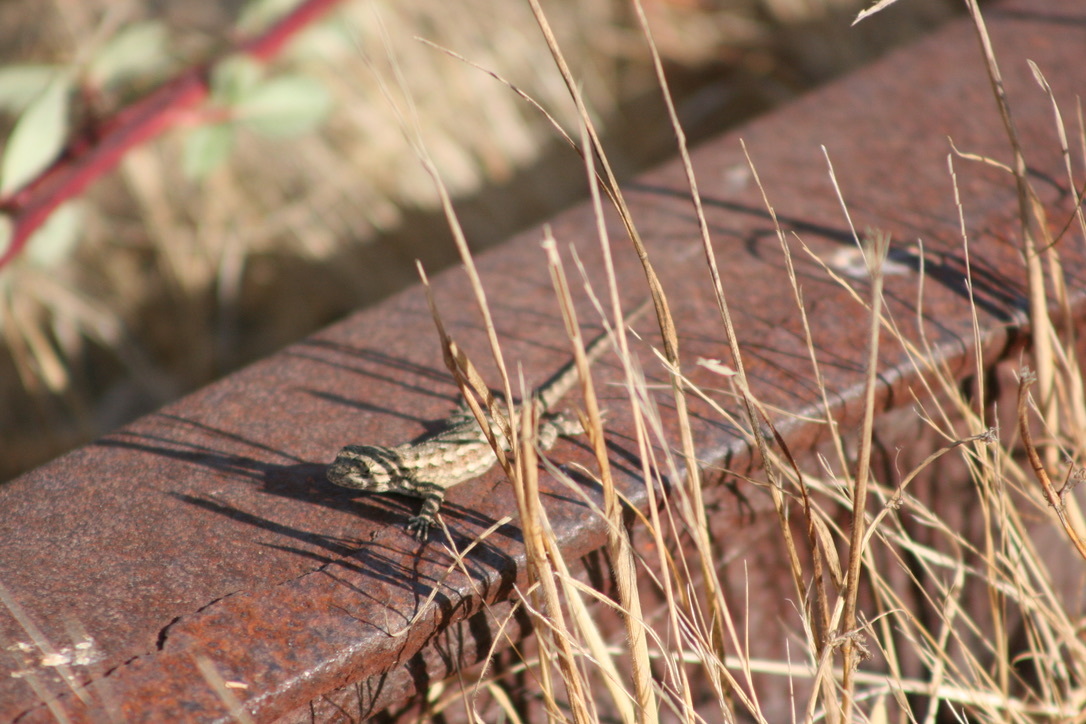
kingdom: Animalia
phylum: Chordata
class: Squamata
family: Phrynosomatidae
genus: Sceloporus
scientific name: Sceloporus occidentalis
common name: Western fence lizard
